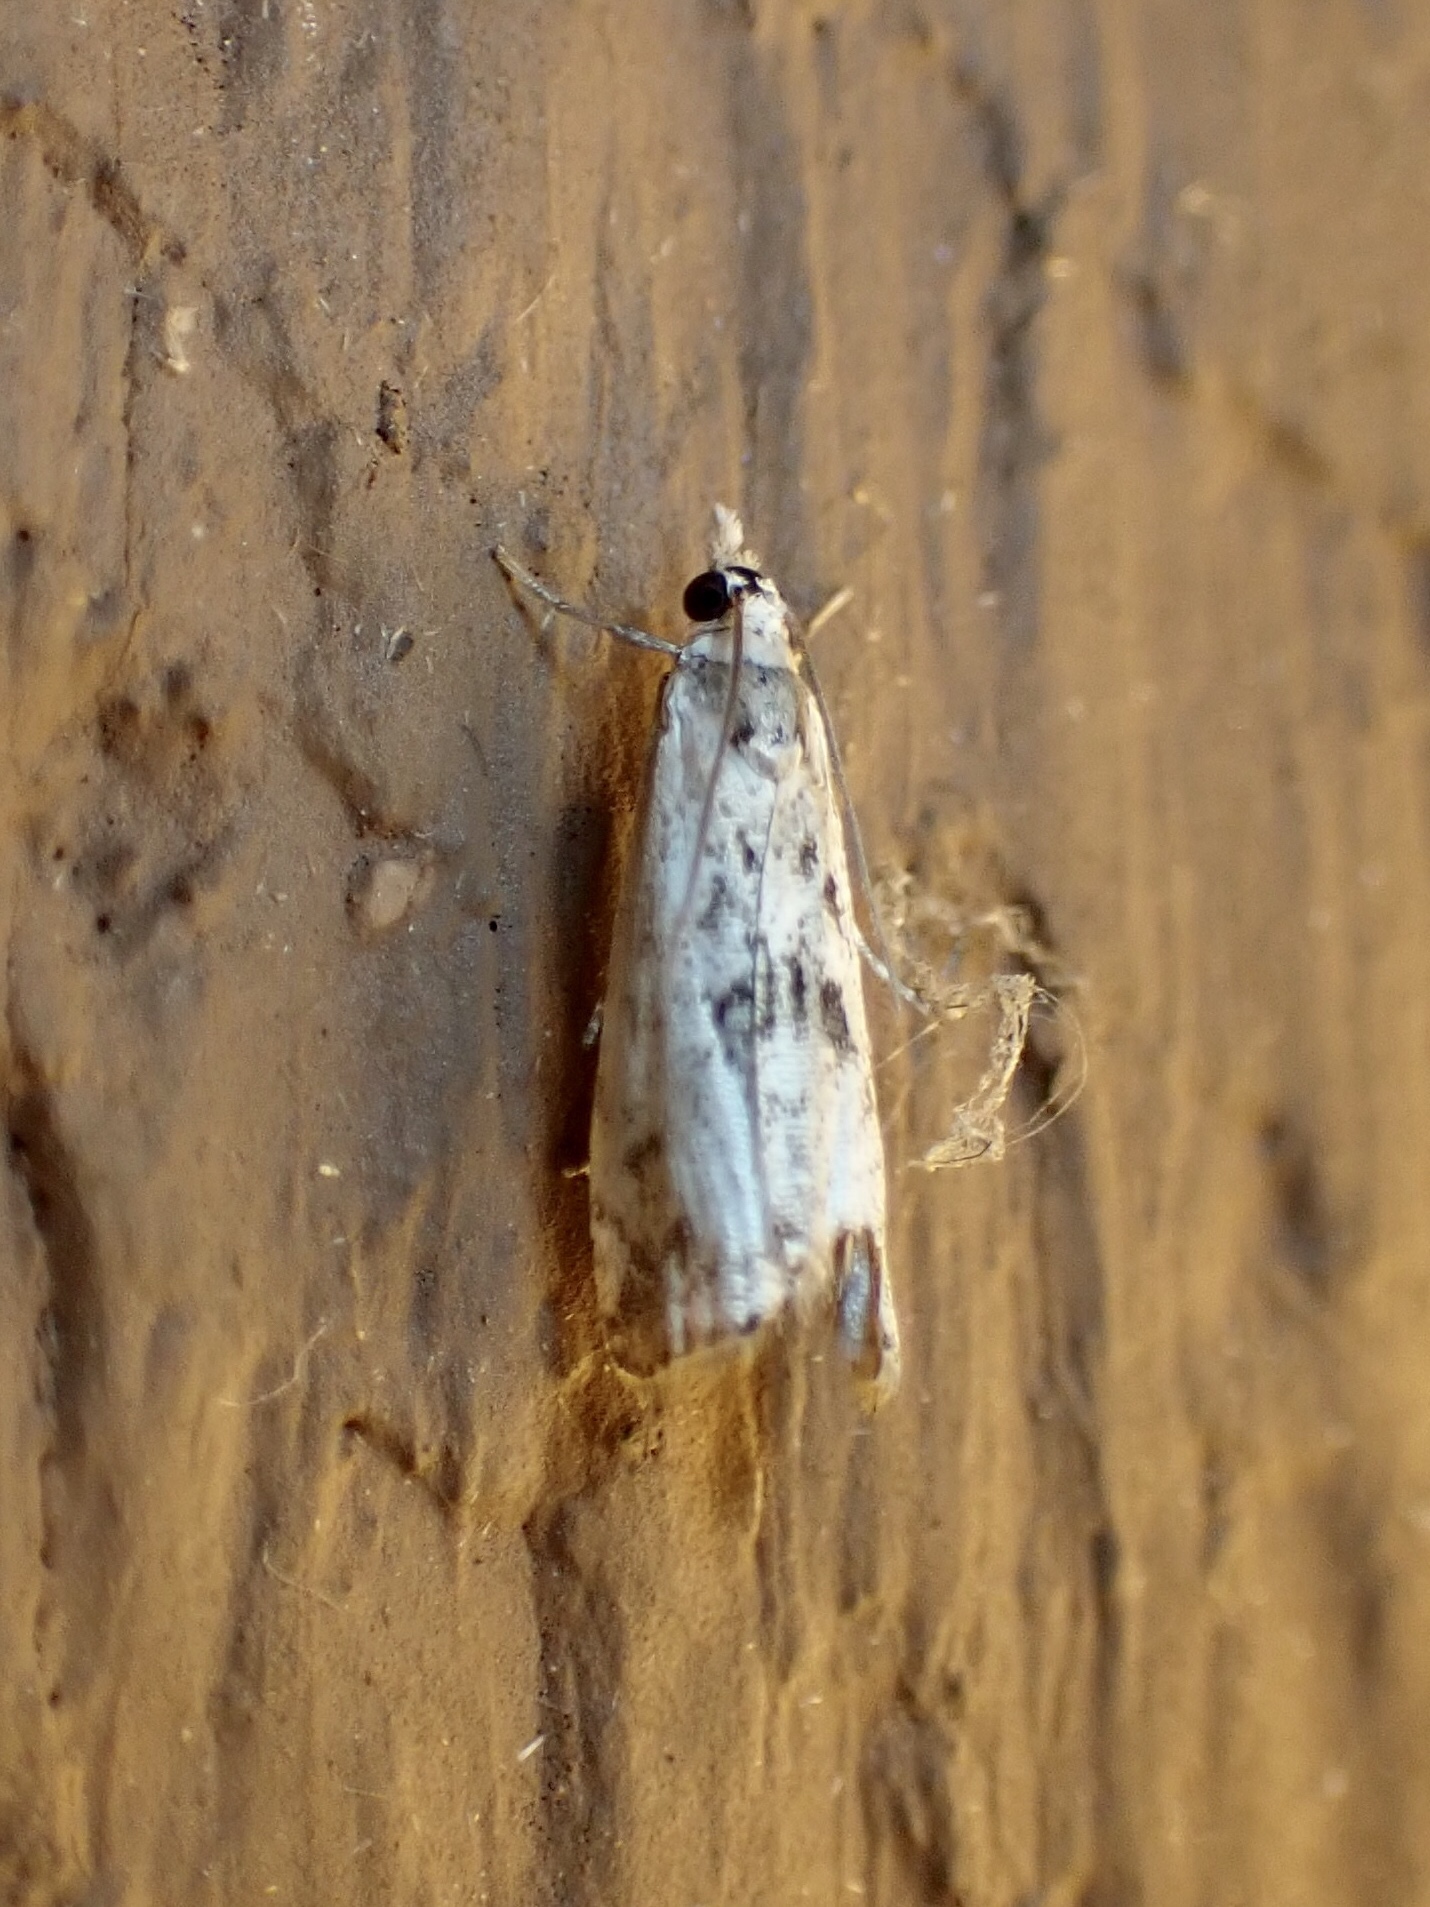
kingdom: Animalia
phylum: Arthropoda
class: Insecta
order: Lepidoptera
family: Crambidae
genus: Microcrambus
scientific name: Microcrambus elegans
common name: Elegant grass-veneer
